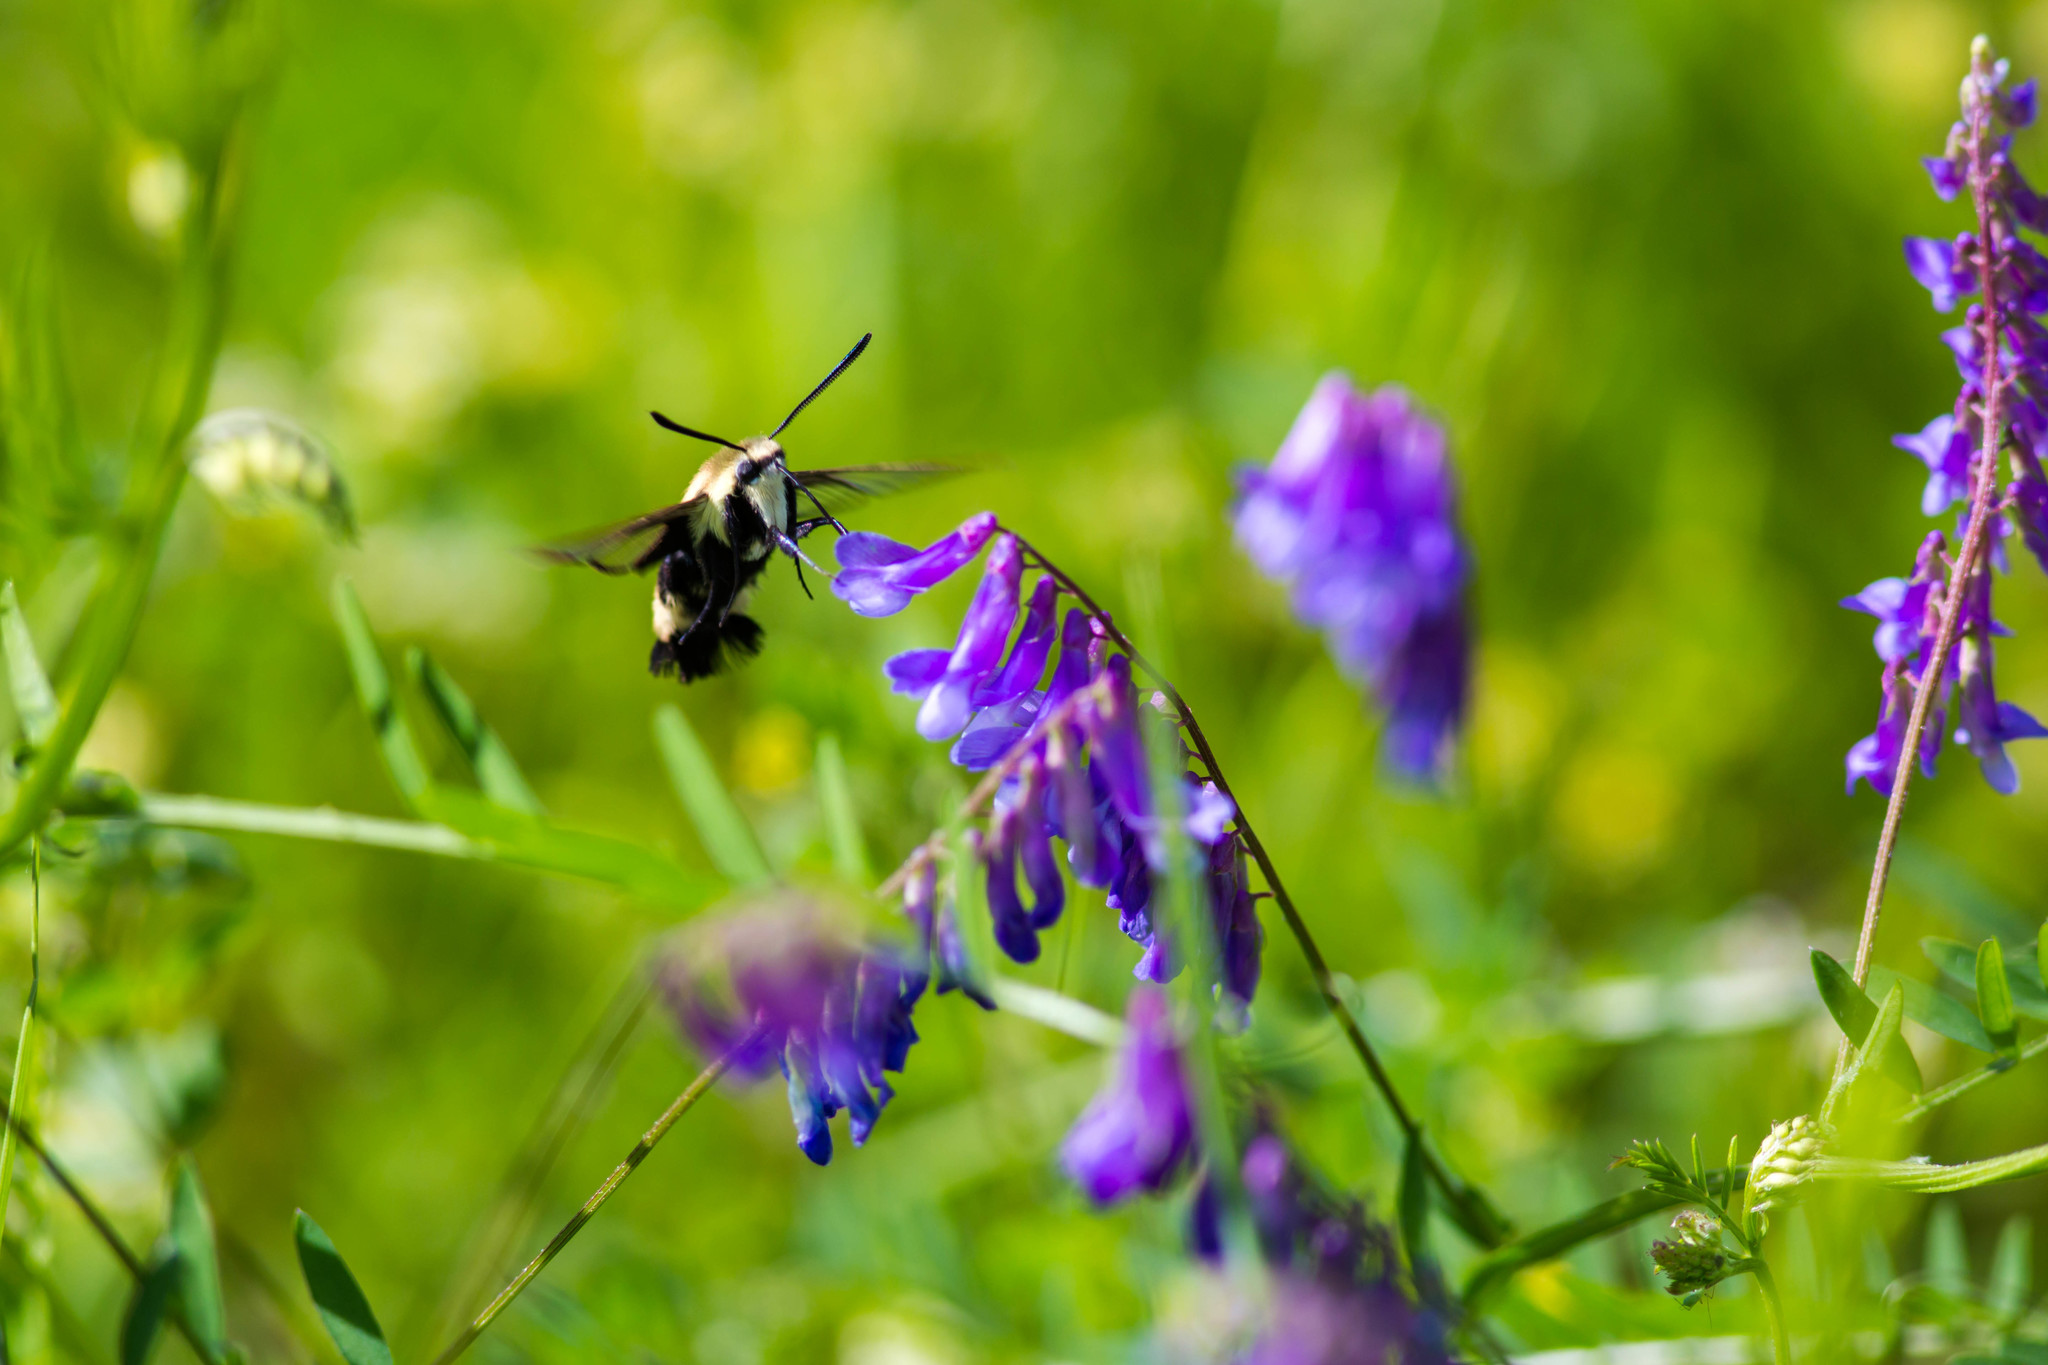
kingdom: Animalia
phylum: Arthropoda
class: Insecta
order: Lepidoptera
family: Sphingidae
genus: Hemaris
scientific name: Hemaris diffinis
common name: Bumblebee moth
